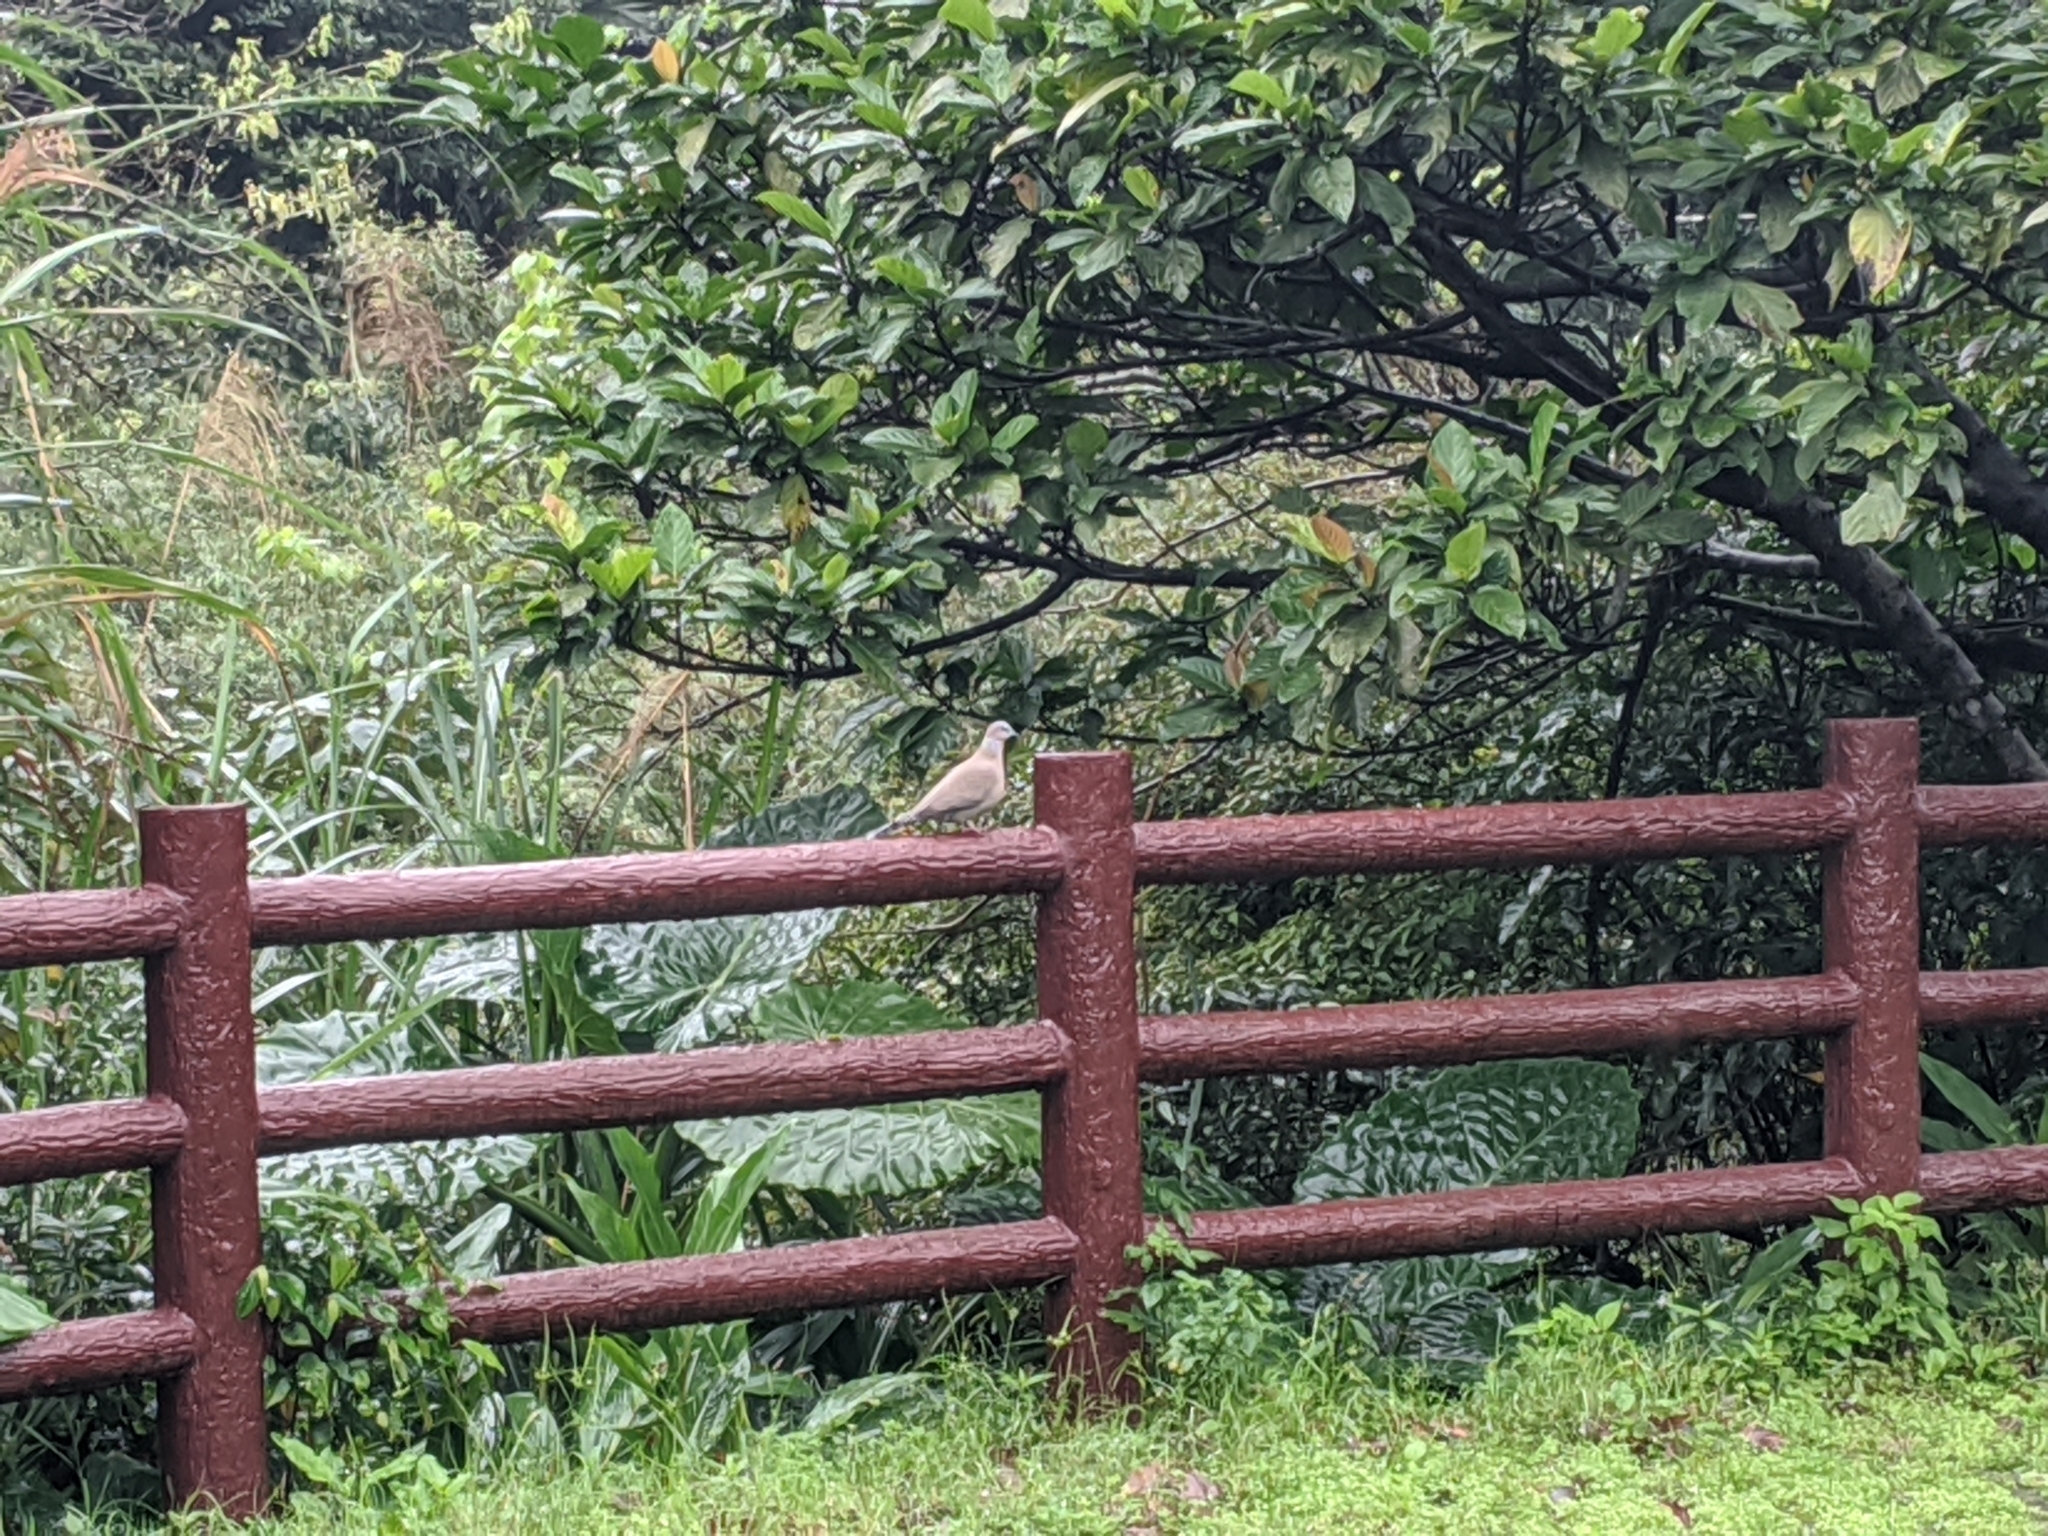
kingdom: Animalia
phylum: Chordata
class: Aves
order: Columbiformes
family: Columbidae
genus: Spilopelia
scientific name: Spilopelia chinensis
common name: Spotted dove
